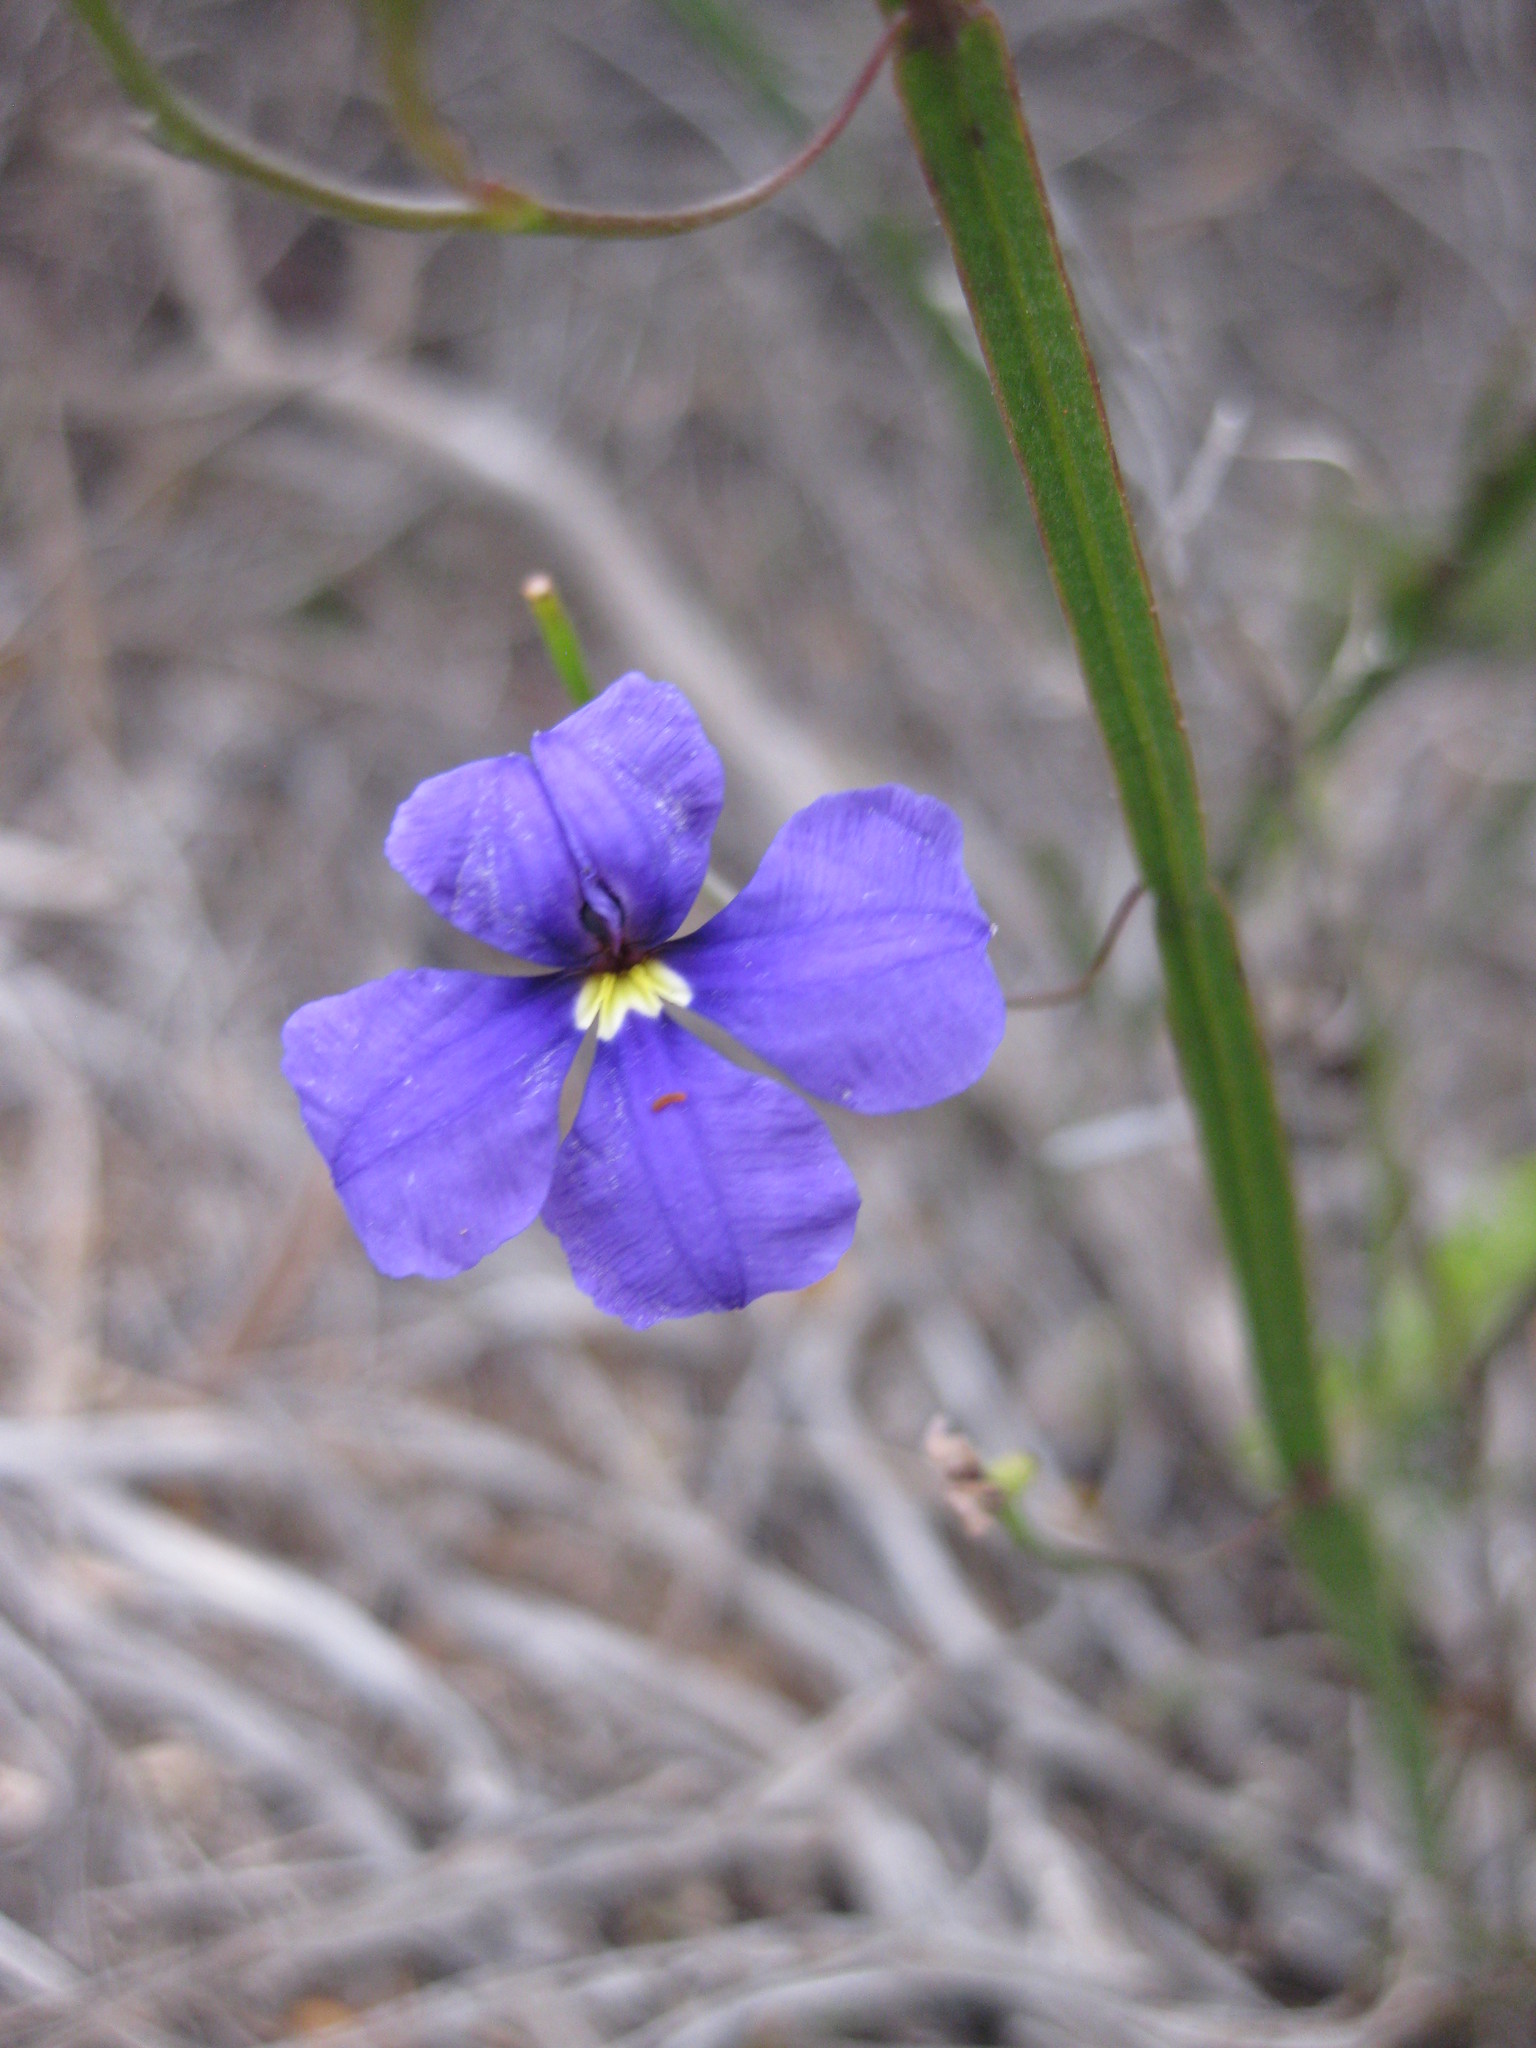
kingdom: Plantae
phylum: Tracheophyta
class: Magnoliopsida
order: Asterales
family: Goodeniaceae
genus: Dampiera
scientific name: Dampiera lindleyi
